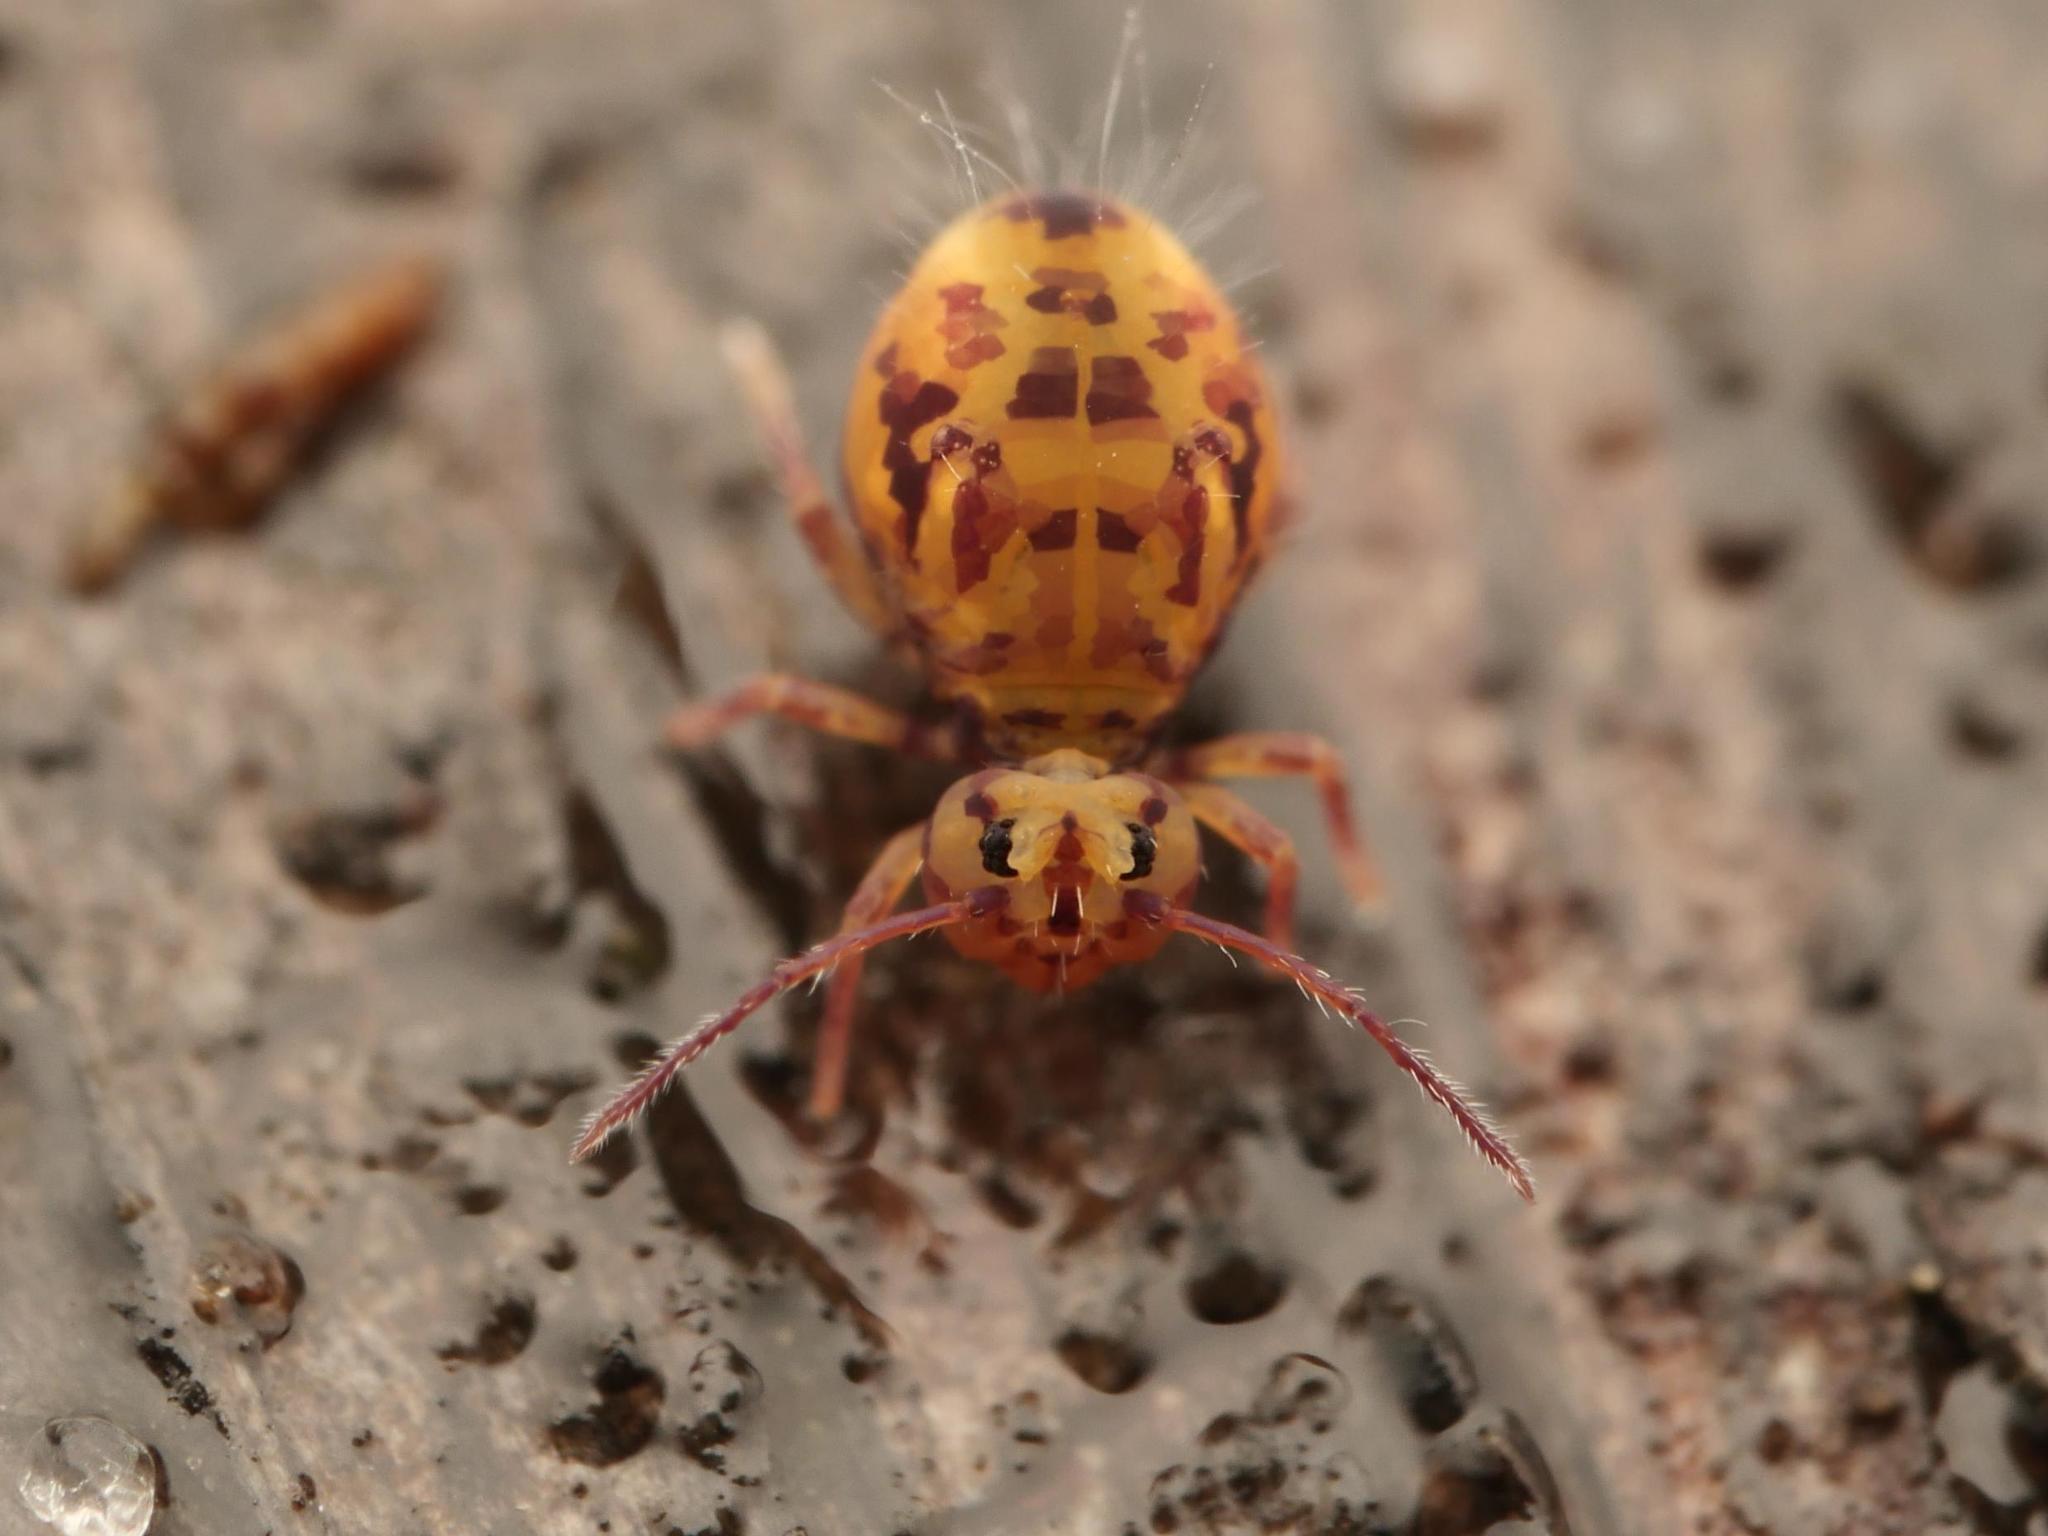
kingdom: Animalia
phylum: Arthropoda
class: Collembola
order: Symphypleona
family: Dicyrtomidae
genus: Dicyrtomina
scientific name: Dicyrtomina ornata
